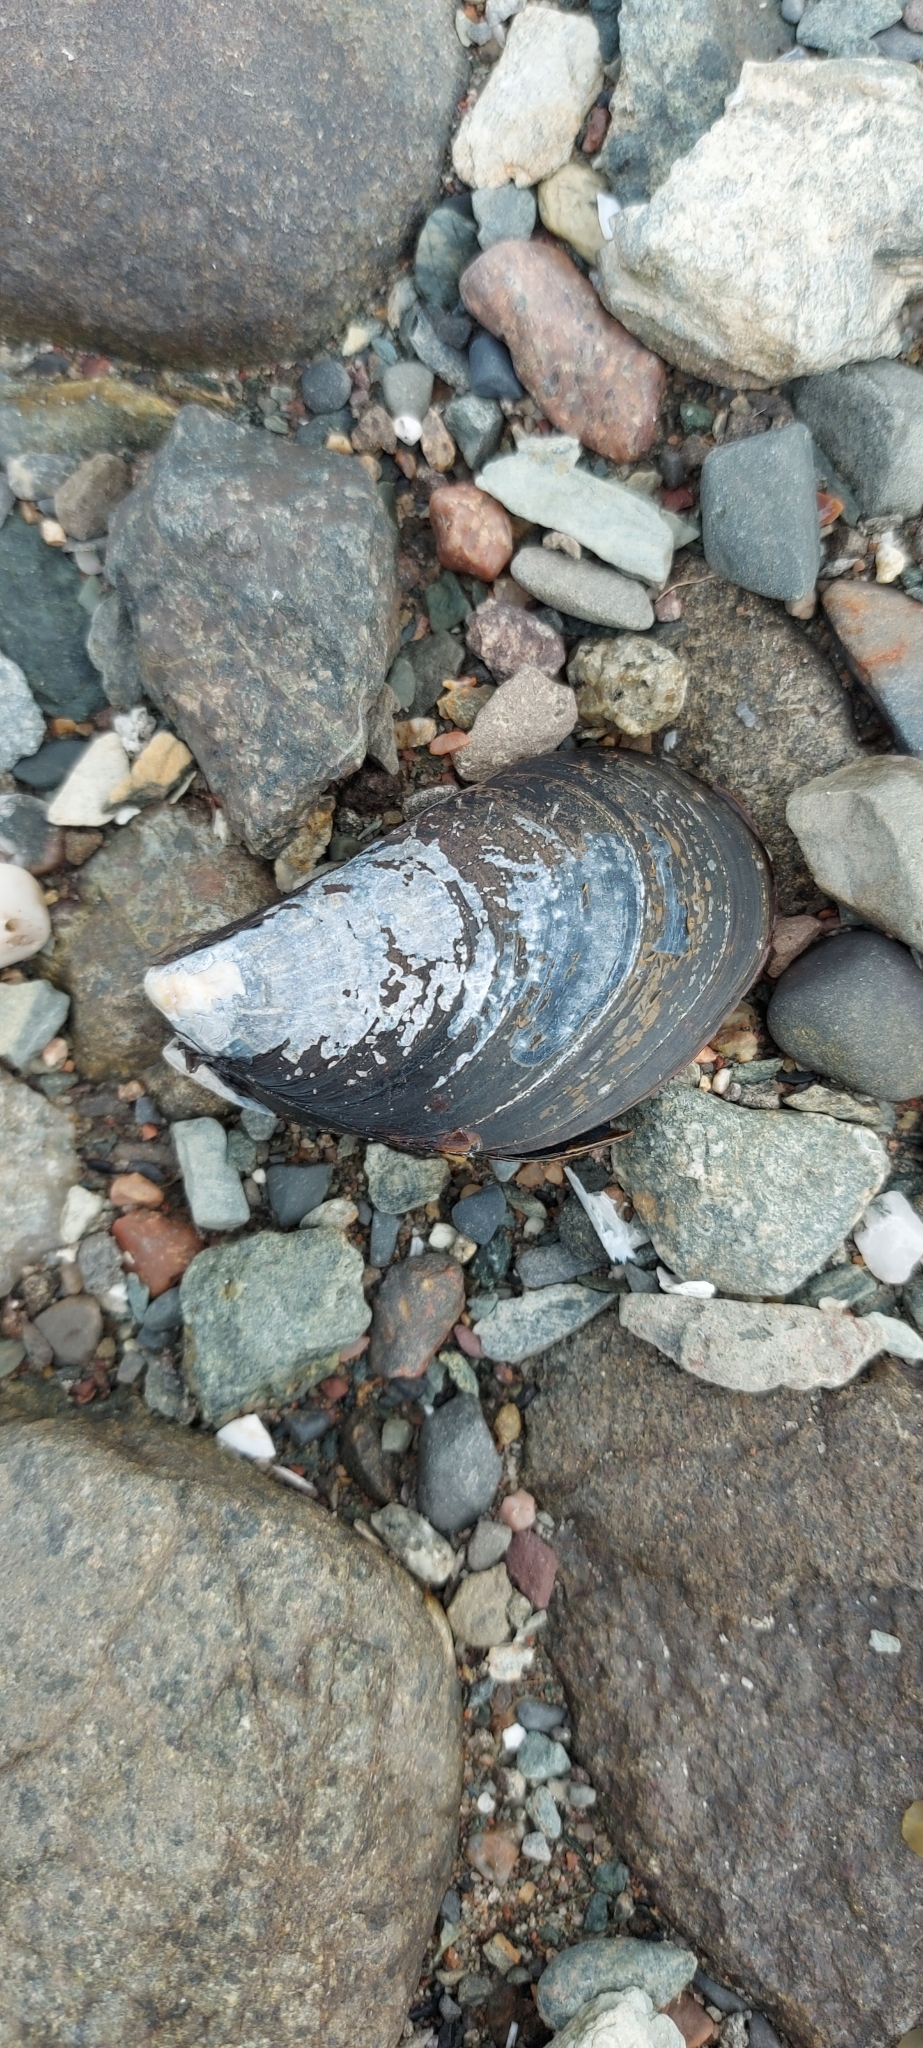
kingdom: Animalia
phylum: Mollusca
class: Bivalvia
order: Mytilida
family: Mytilidae
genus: Mytilus
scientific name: Mytilus
